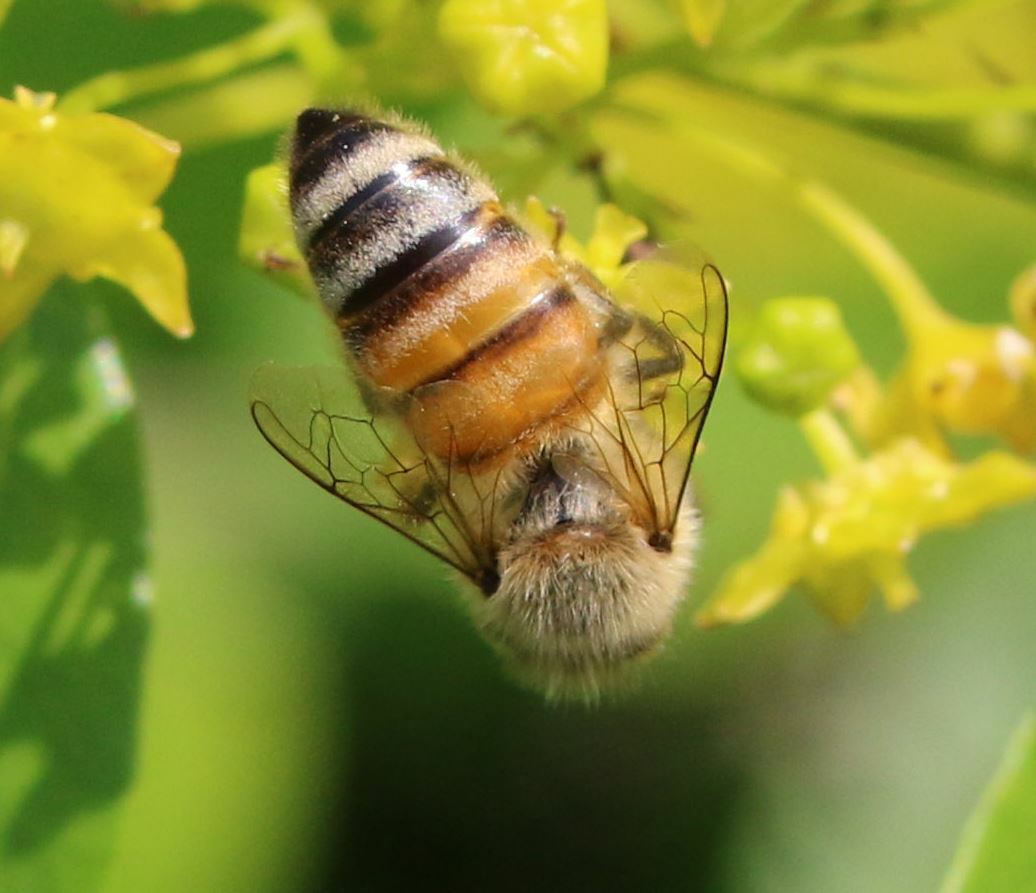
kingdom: Animalia
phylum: Arthropoda
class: Insecta
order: Hymenoptera
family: Apidae
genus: Apis
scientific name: Apis mellifera
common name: Honey bee
